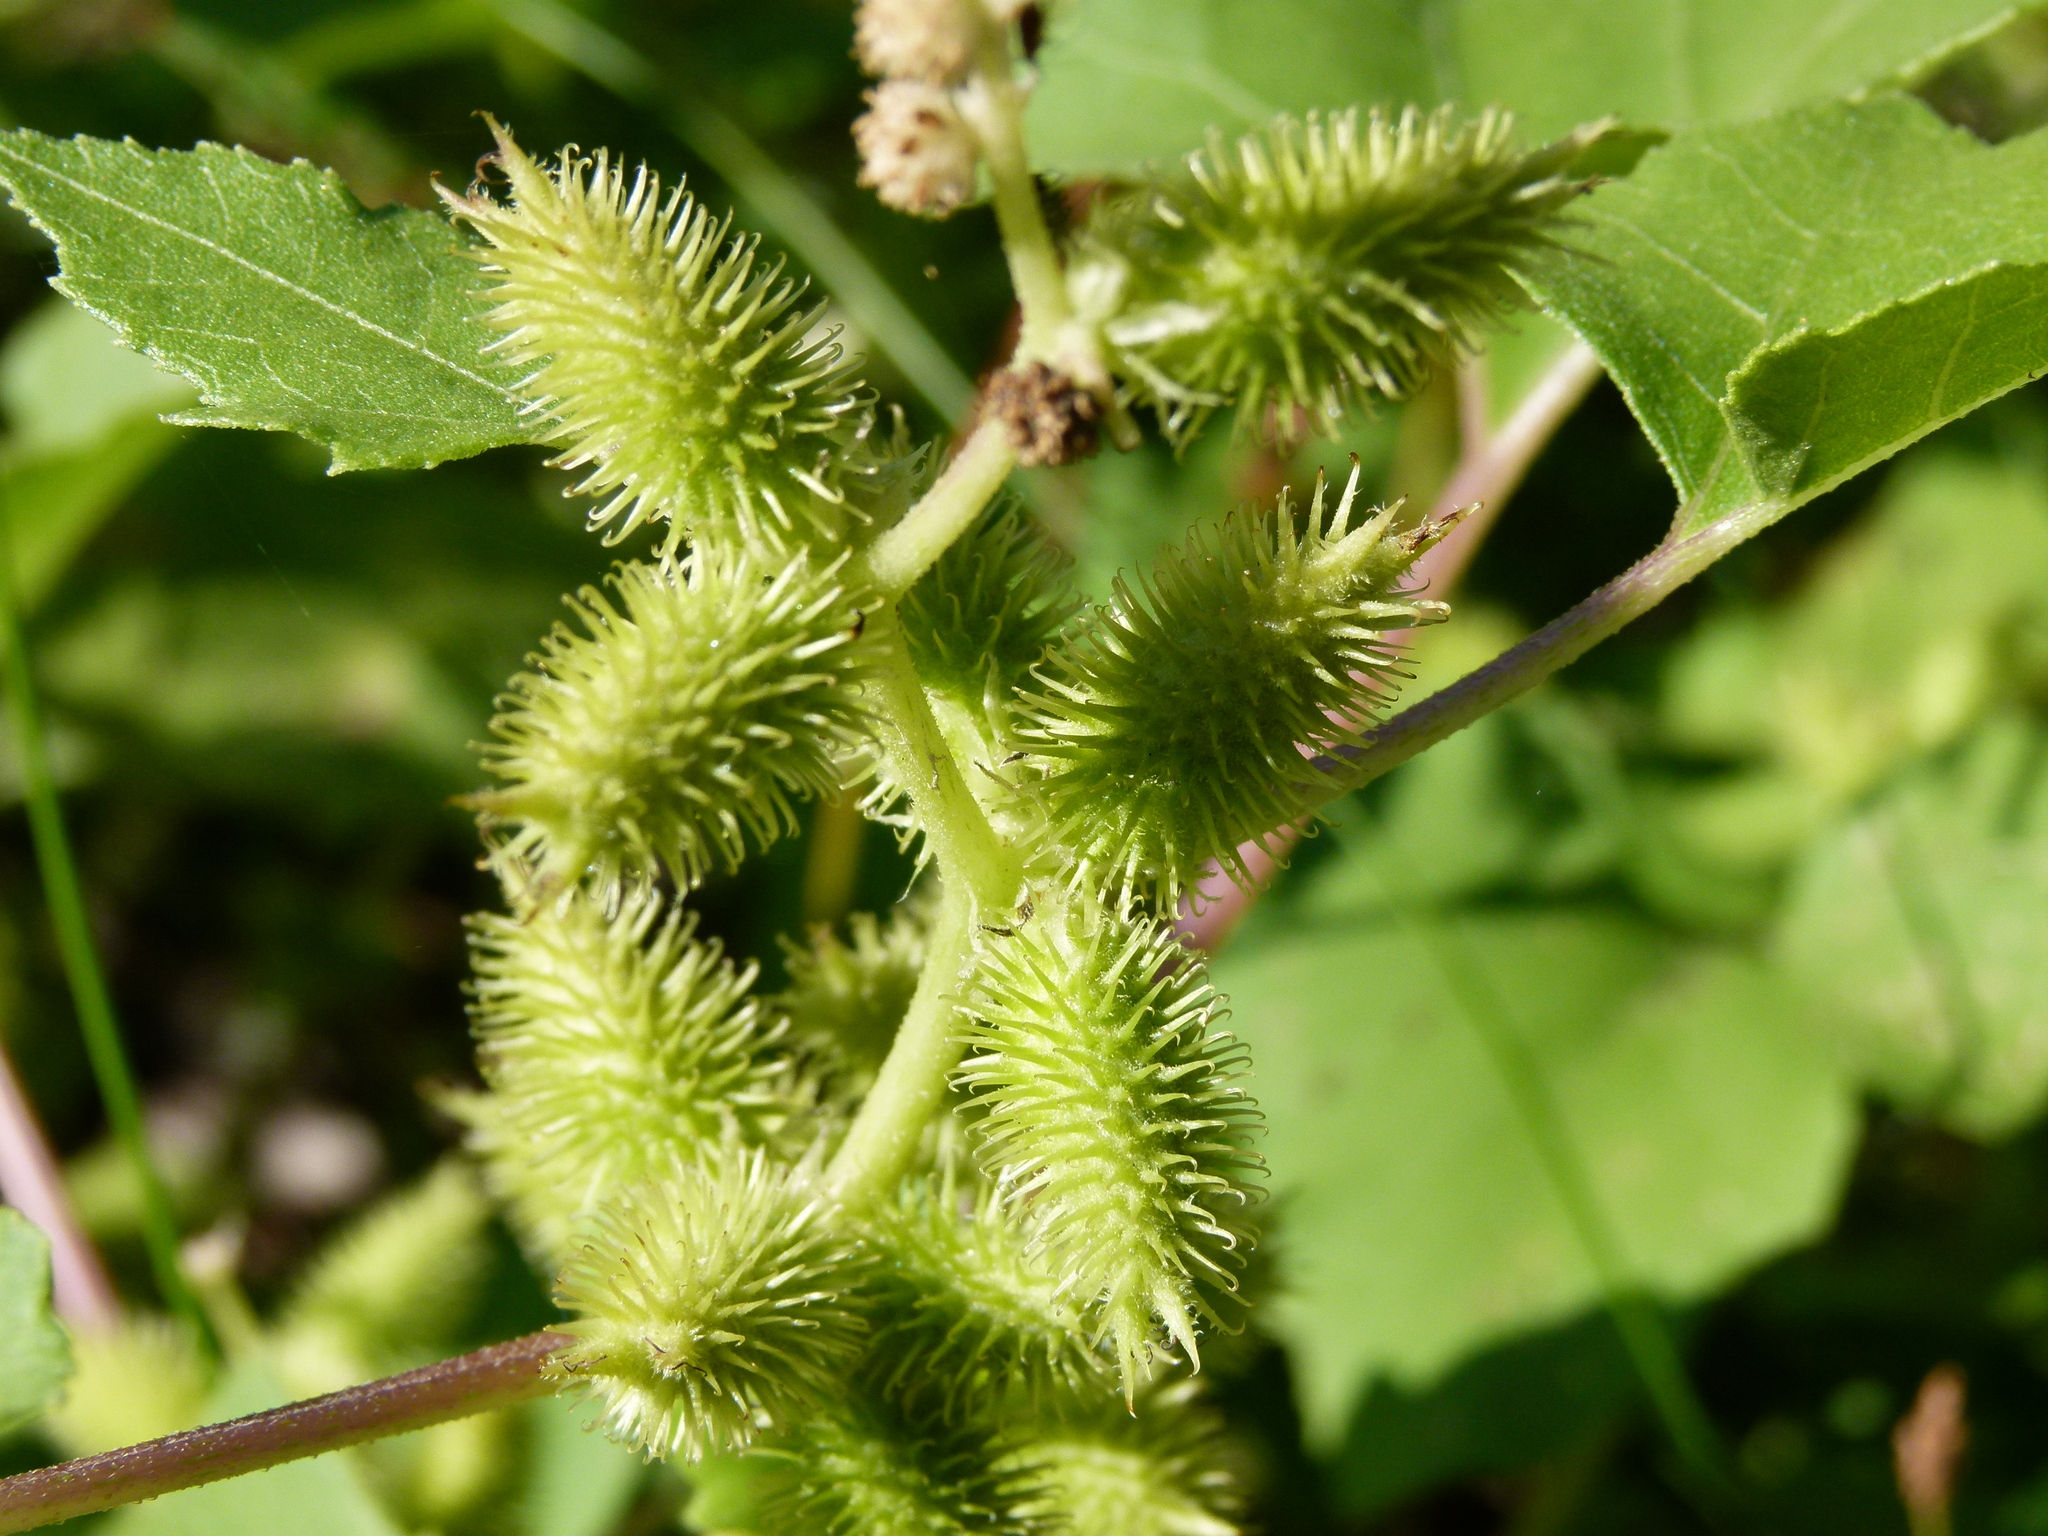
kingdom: Plantae
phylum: Tracheophyta
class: Magnoliopsida
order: Asterales
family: Asteraceae
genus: Xanthium
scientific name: Xanthium strumarium
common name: Rough cocklebur
